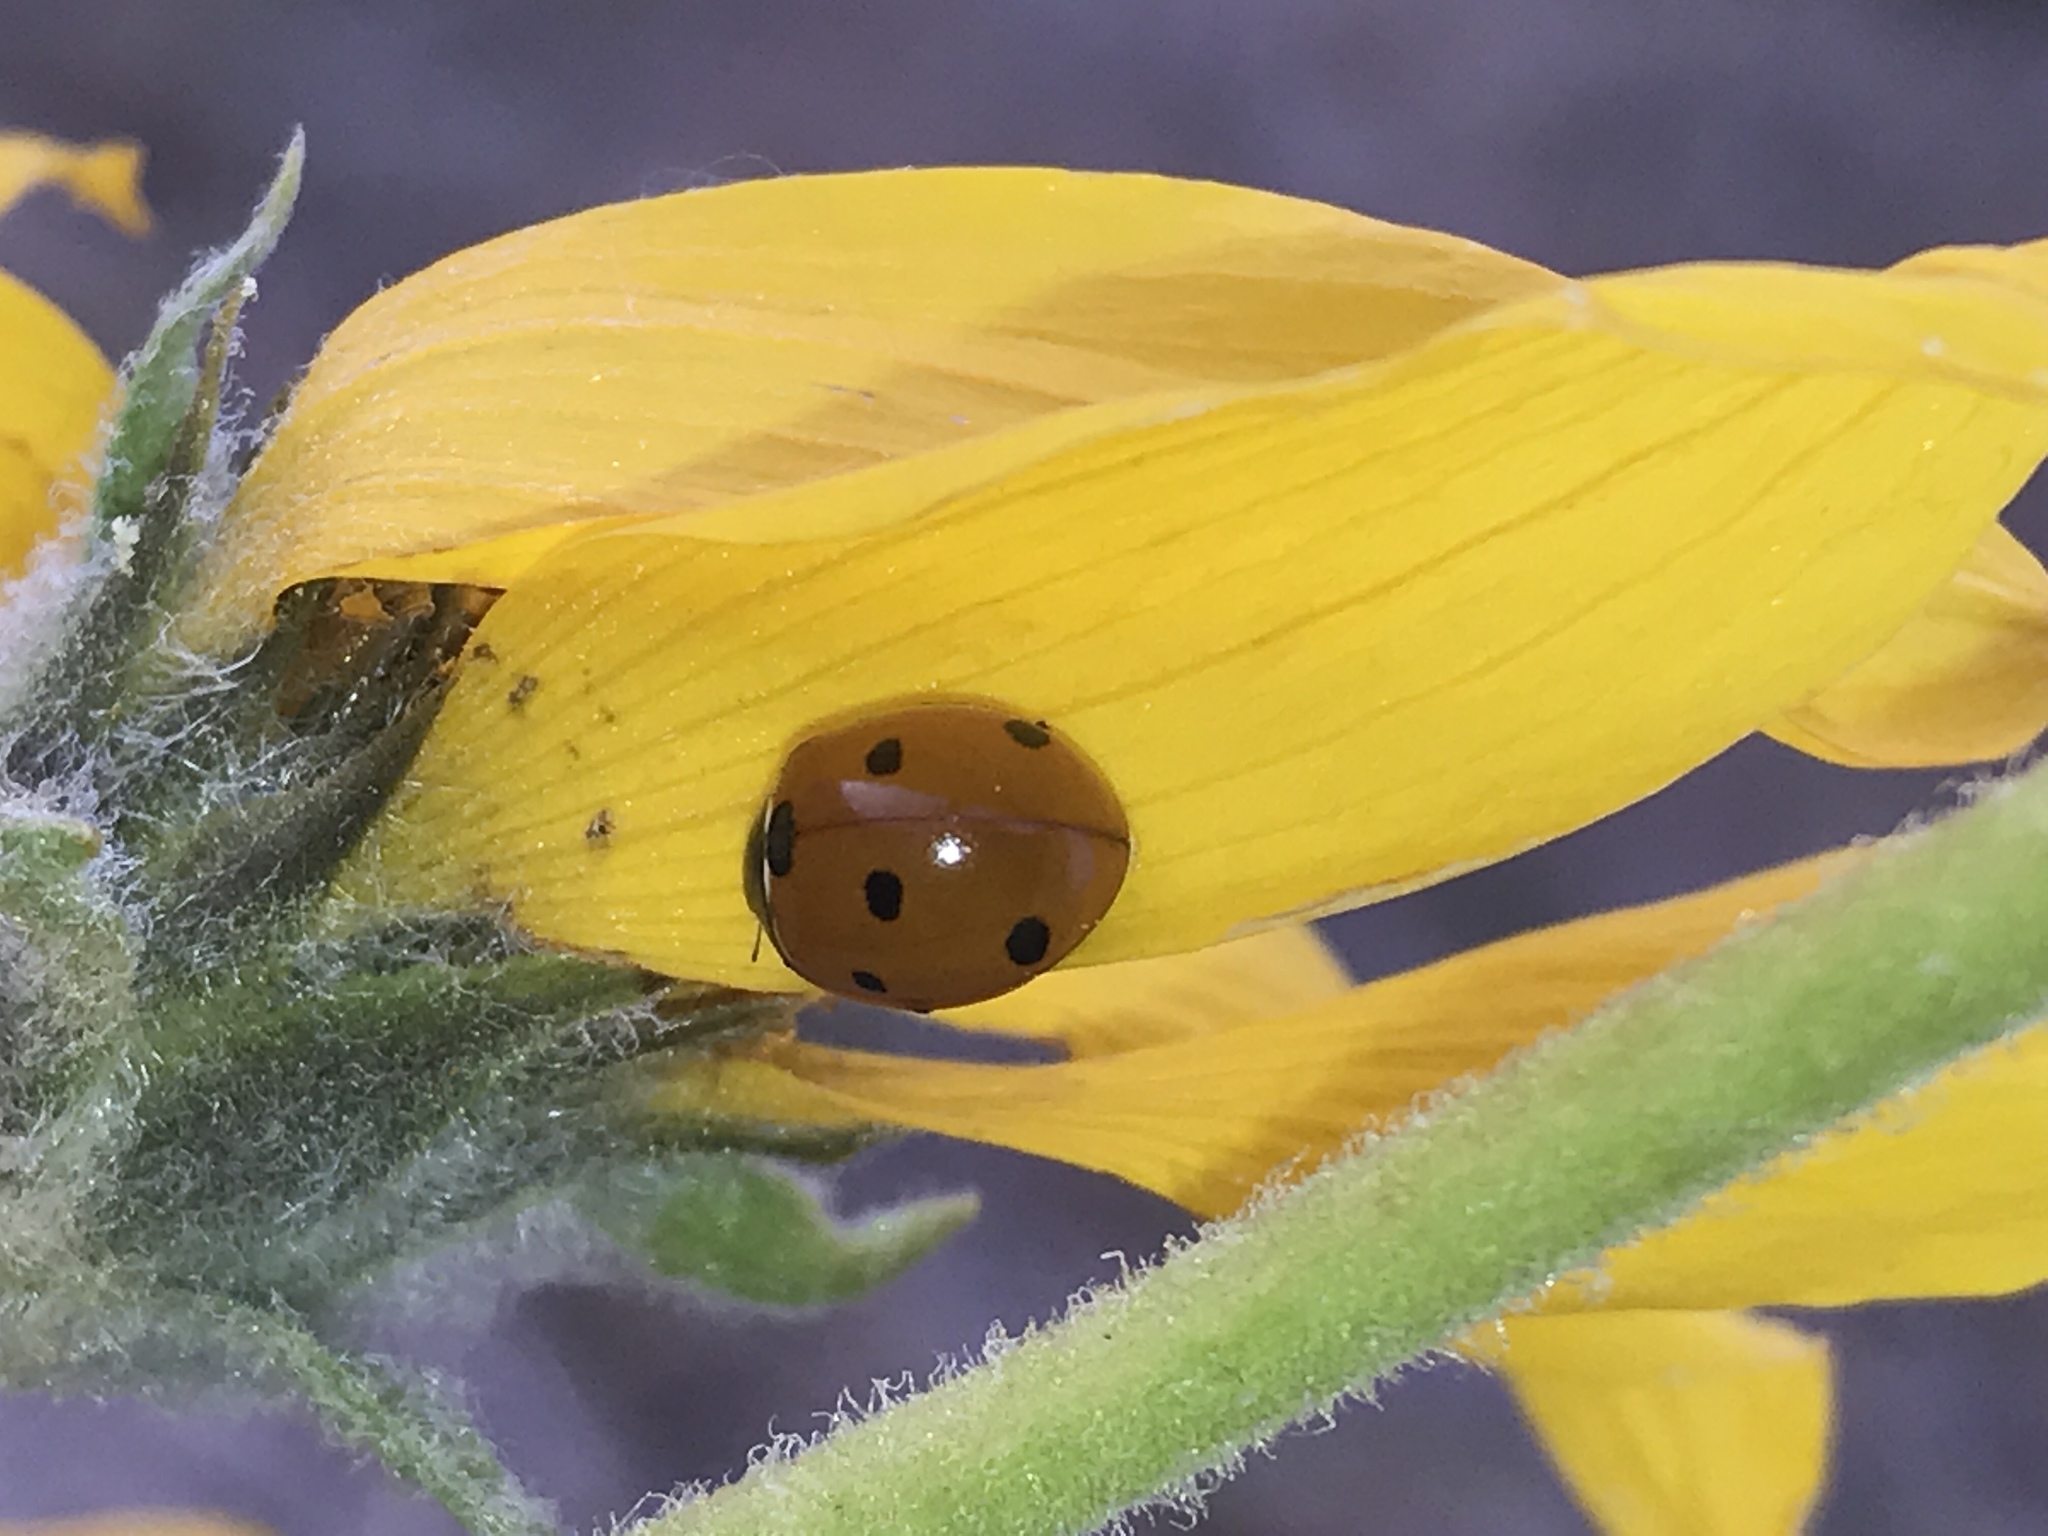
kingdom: Animalia
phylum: Arthropoda
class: Insecta
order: Coleoptera
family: Coccinellidae
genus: Coccinella
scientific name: Coccinella septempunctata
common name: Sevenspotted lady beetle
